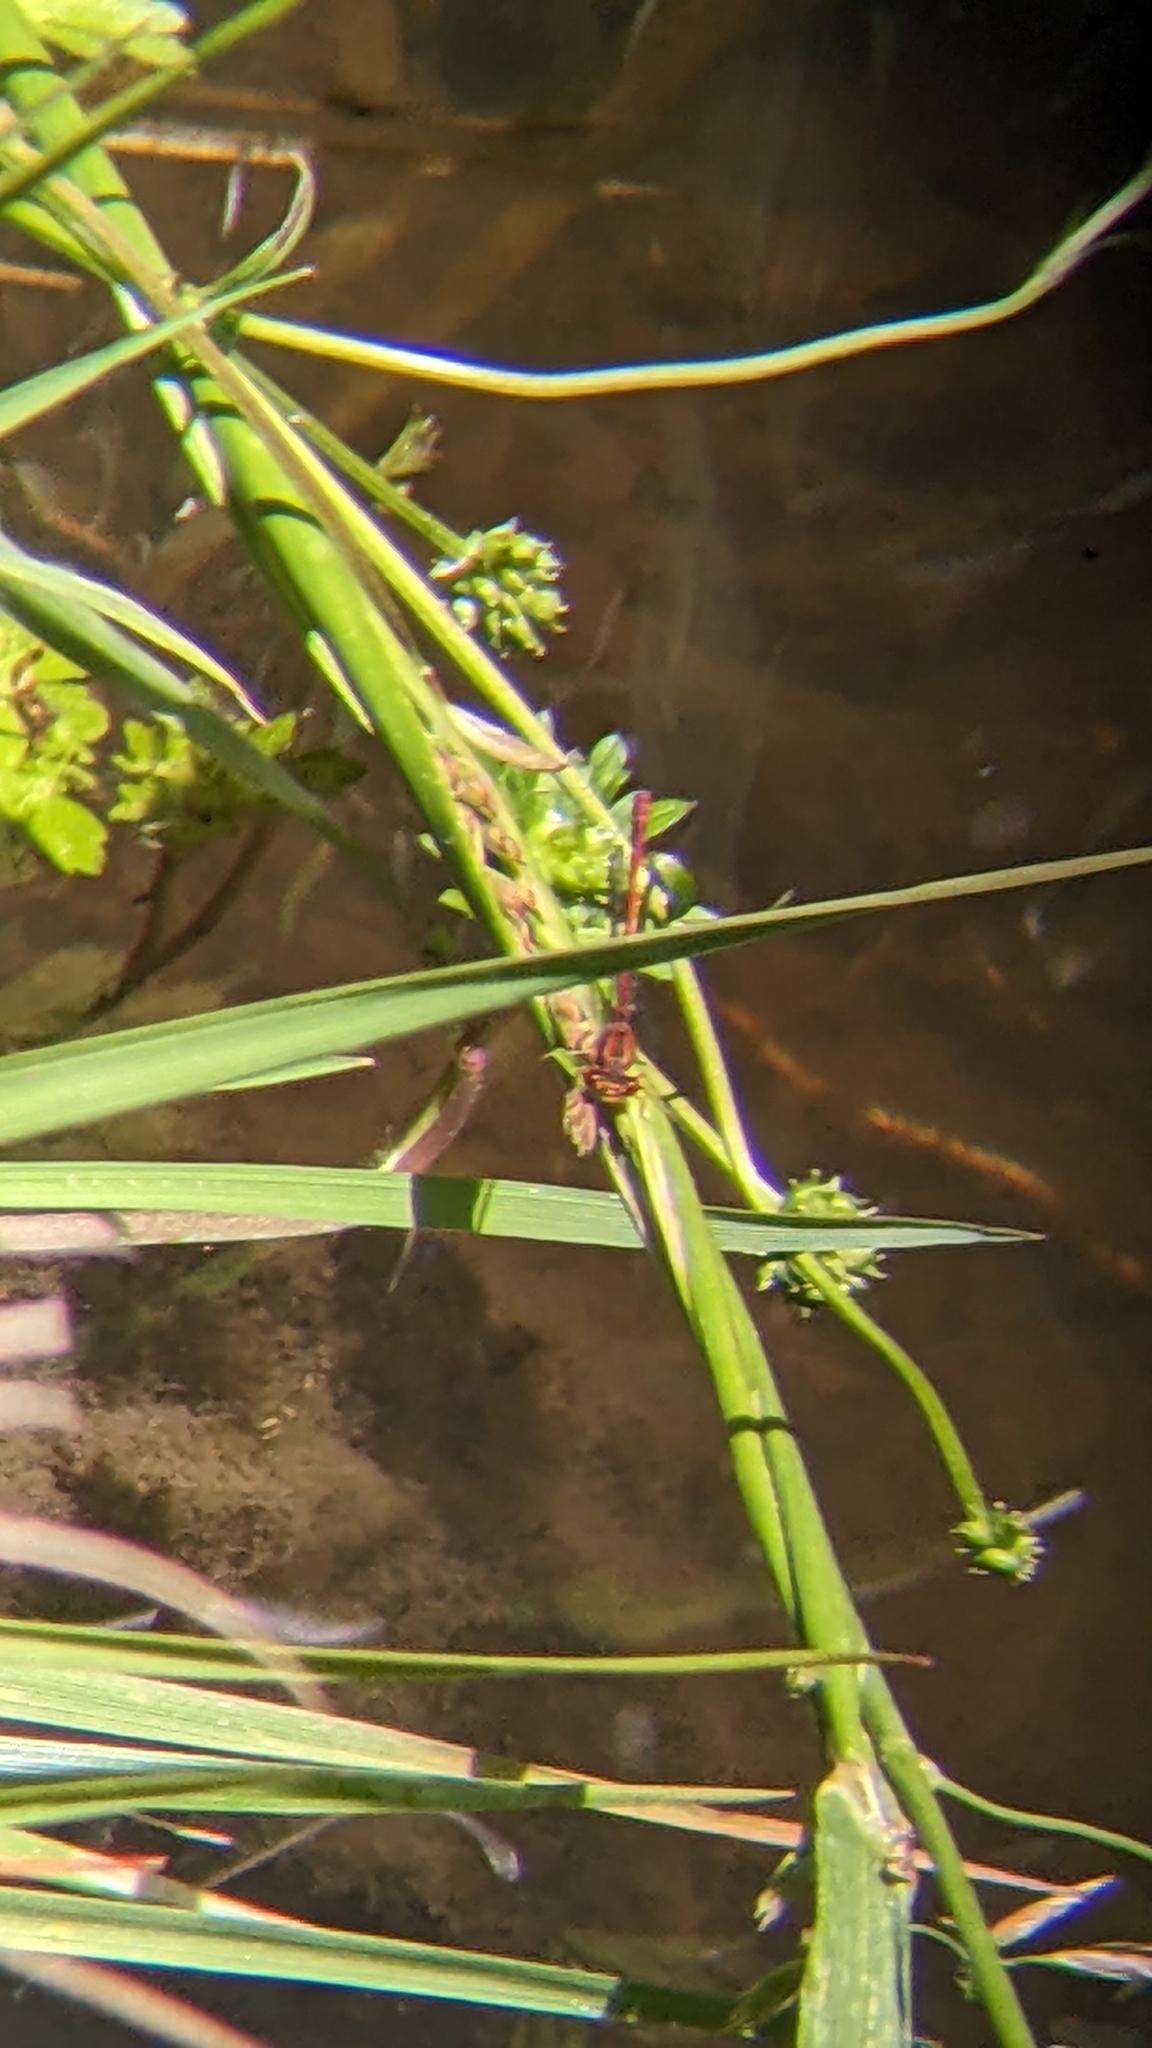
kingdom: Animalia
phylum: Arthropoda
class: Insecta
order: Odonata
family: Coenagrionidae
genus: Xanthocnemis
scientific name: Xanthocnemis zealandica
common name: Common redcoat damselfly
